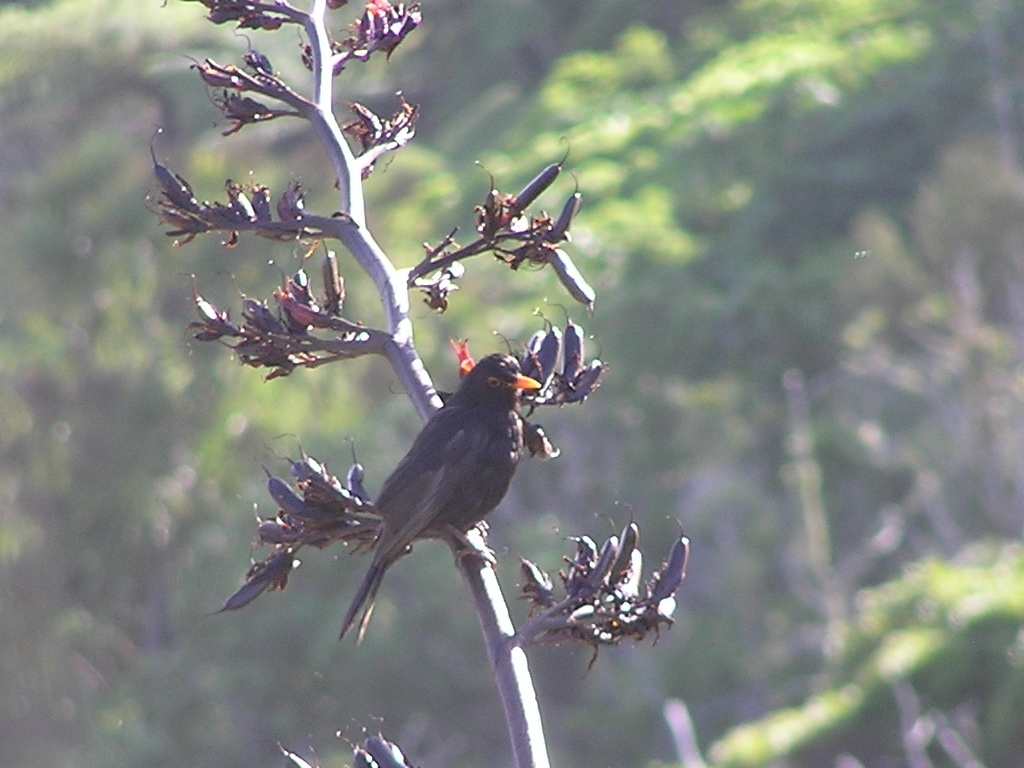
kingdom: Animalia
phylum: Chordata
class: Aves
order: Passeriformes
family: Turdidae
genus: Turdus
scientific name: Turdus merula
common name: Common blackbird
